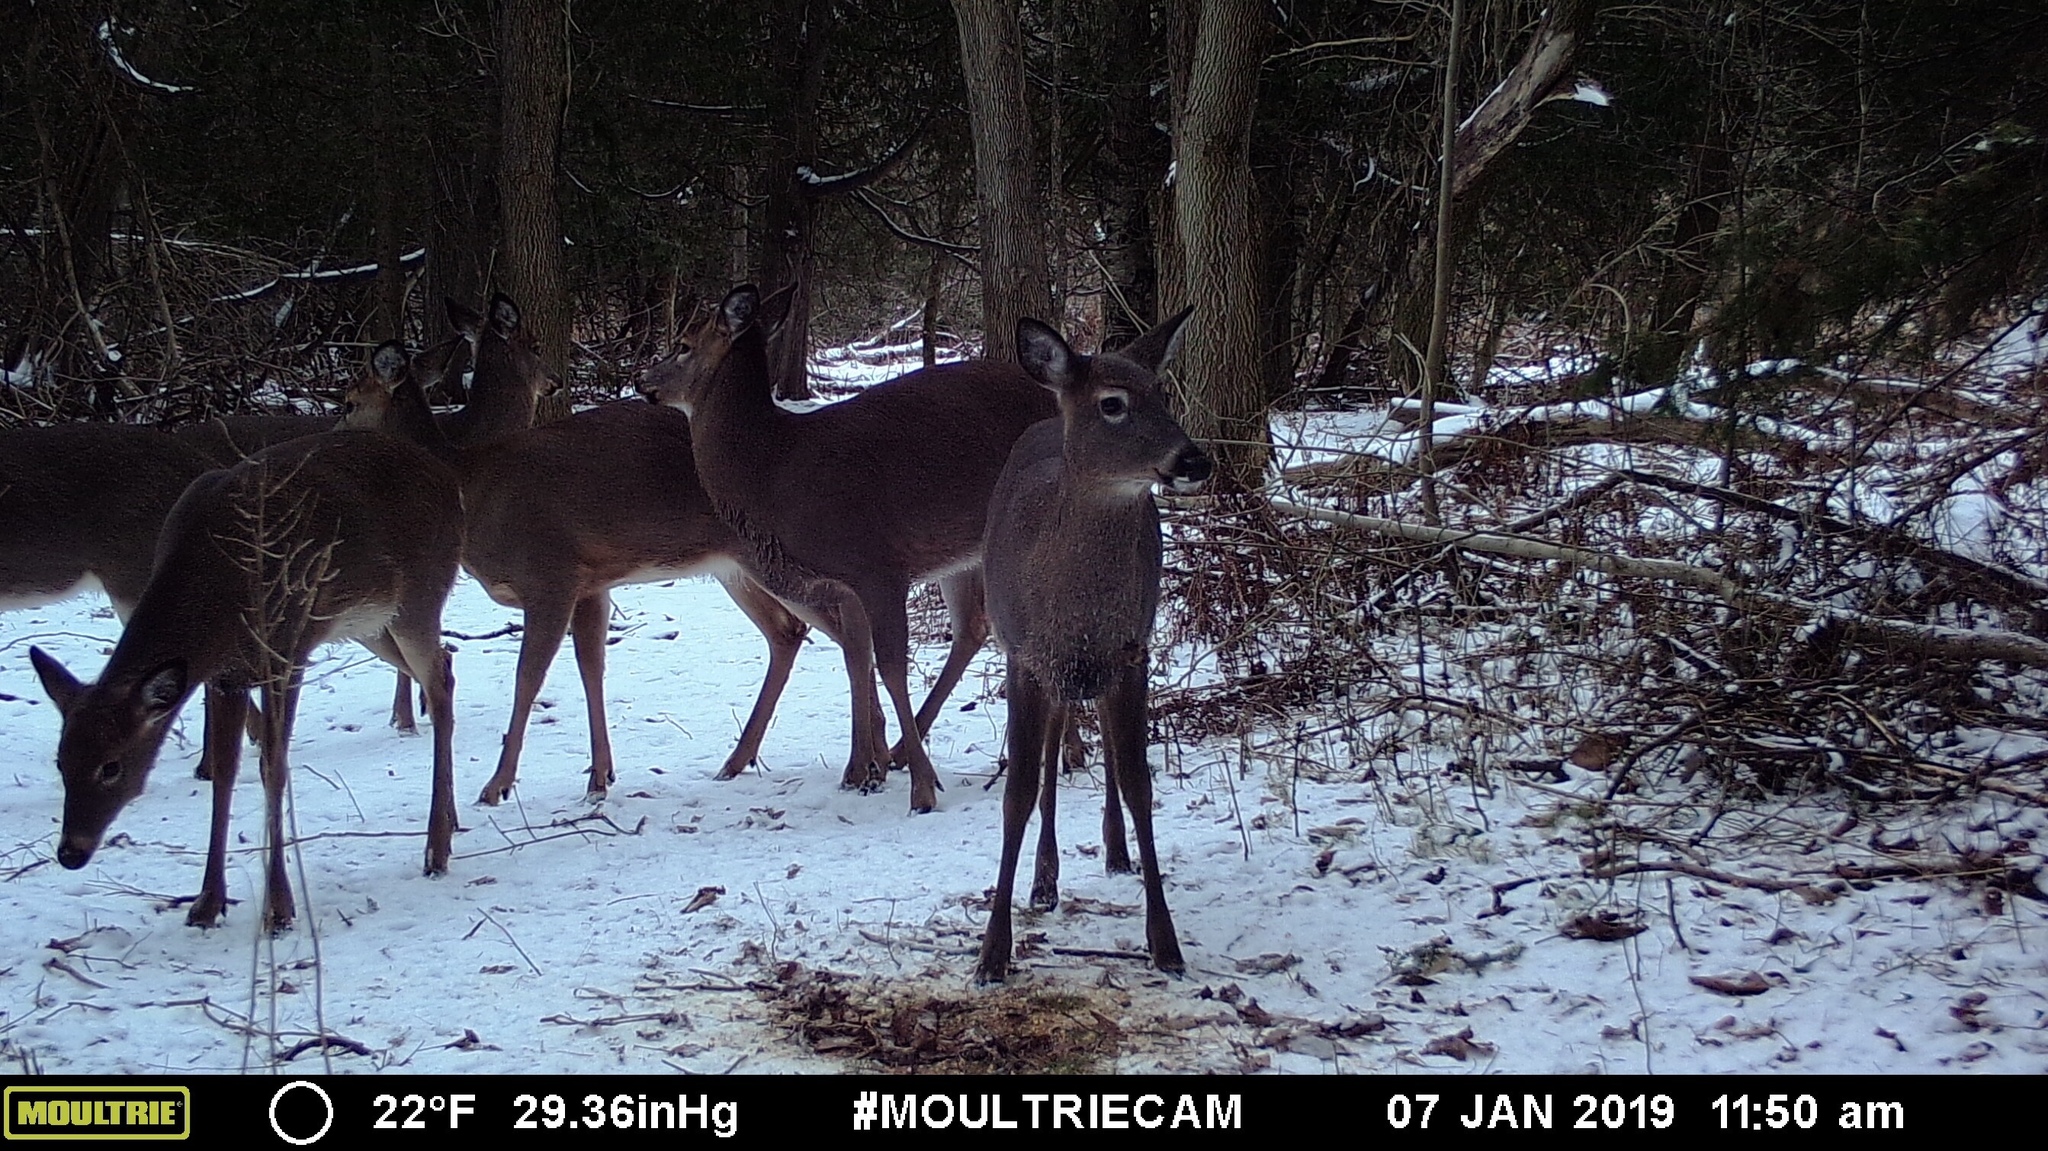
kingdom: Animalia
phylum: Chordata
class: Mammalia
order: Artiodactyla
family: Cervidae
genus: Odocoileus
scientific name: Odocoileus virginianus
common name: White-tailed deer
